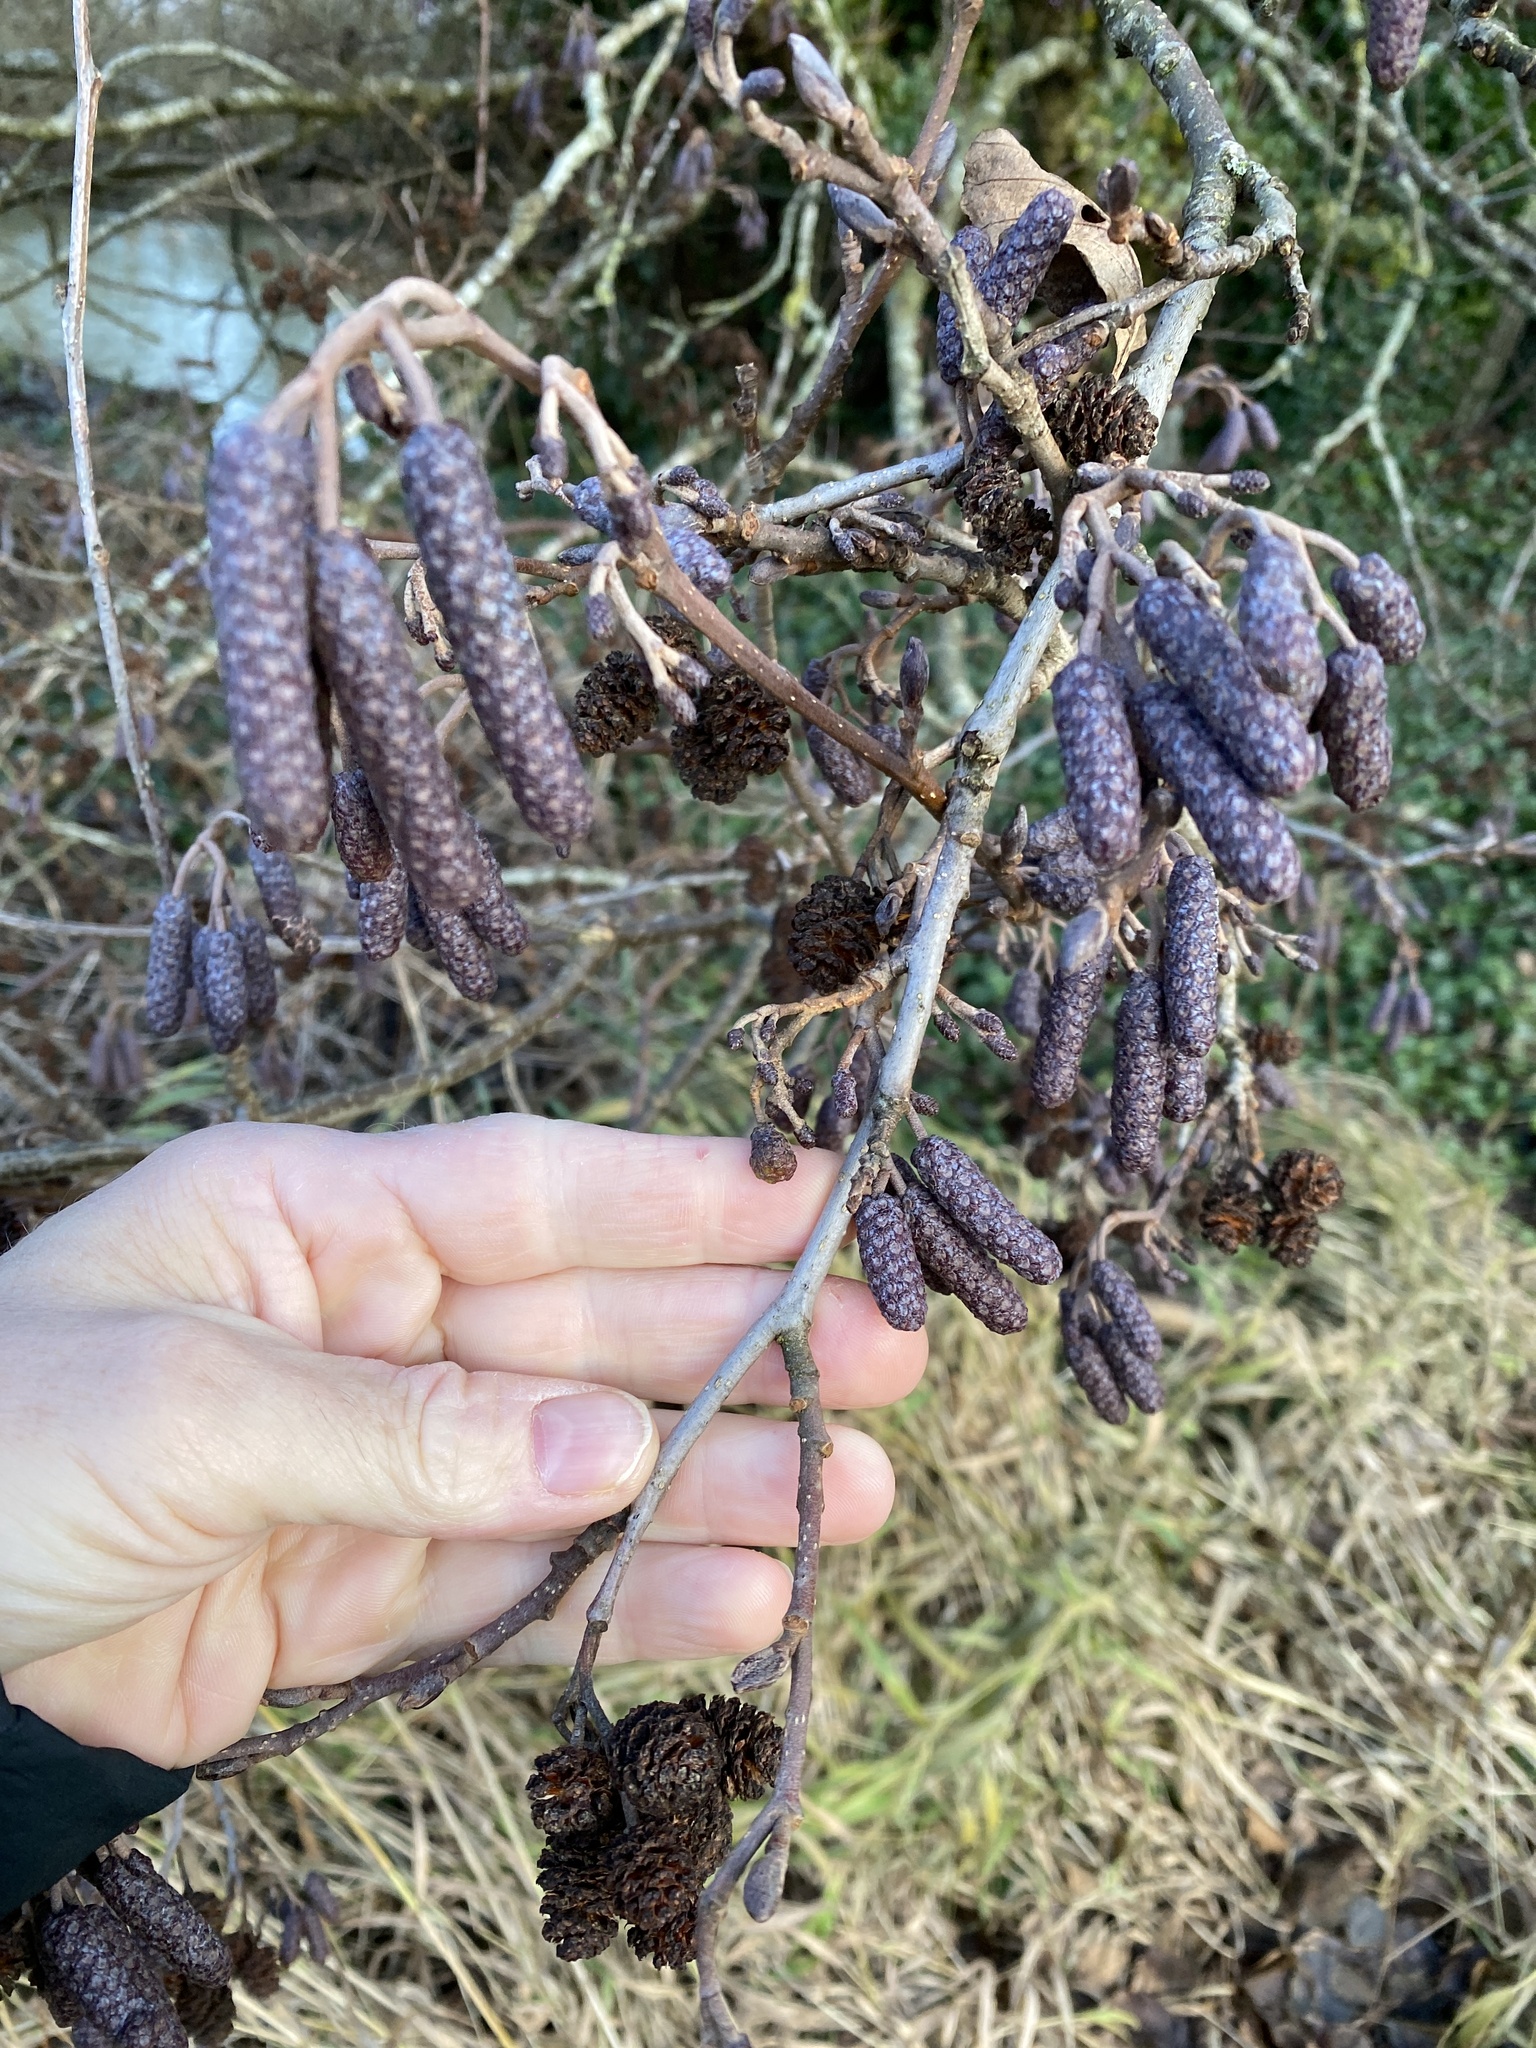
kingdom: Plantae
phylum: Tracheophyta
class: Magnoliopsida
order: Fagales
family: Betulaceae
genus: Alnus
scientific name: Alnus glutinosa
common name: Black alder
